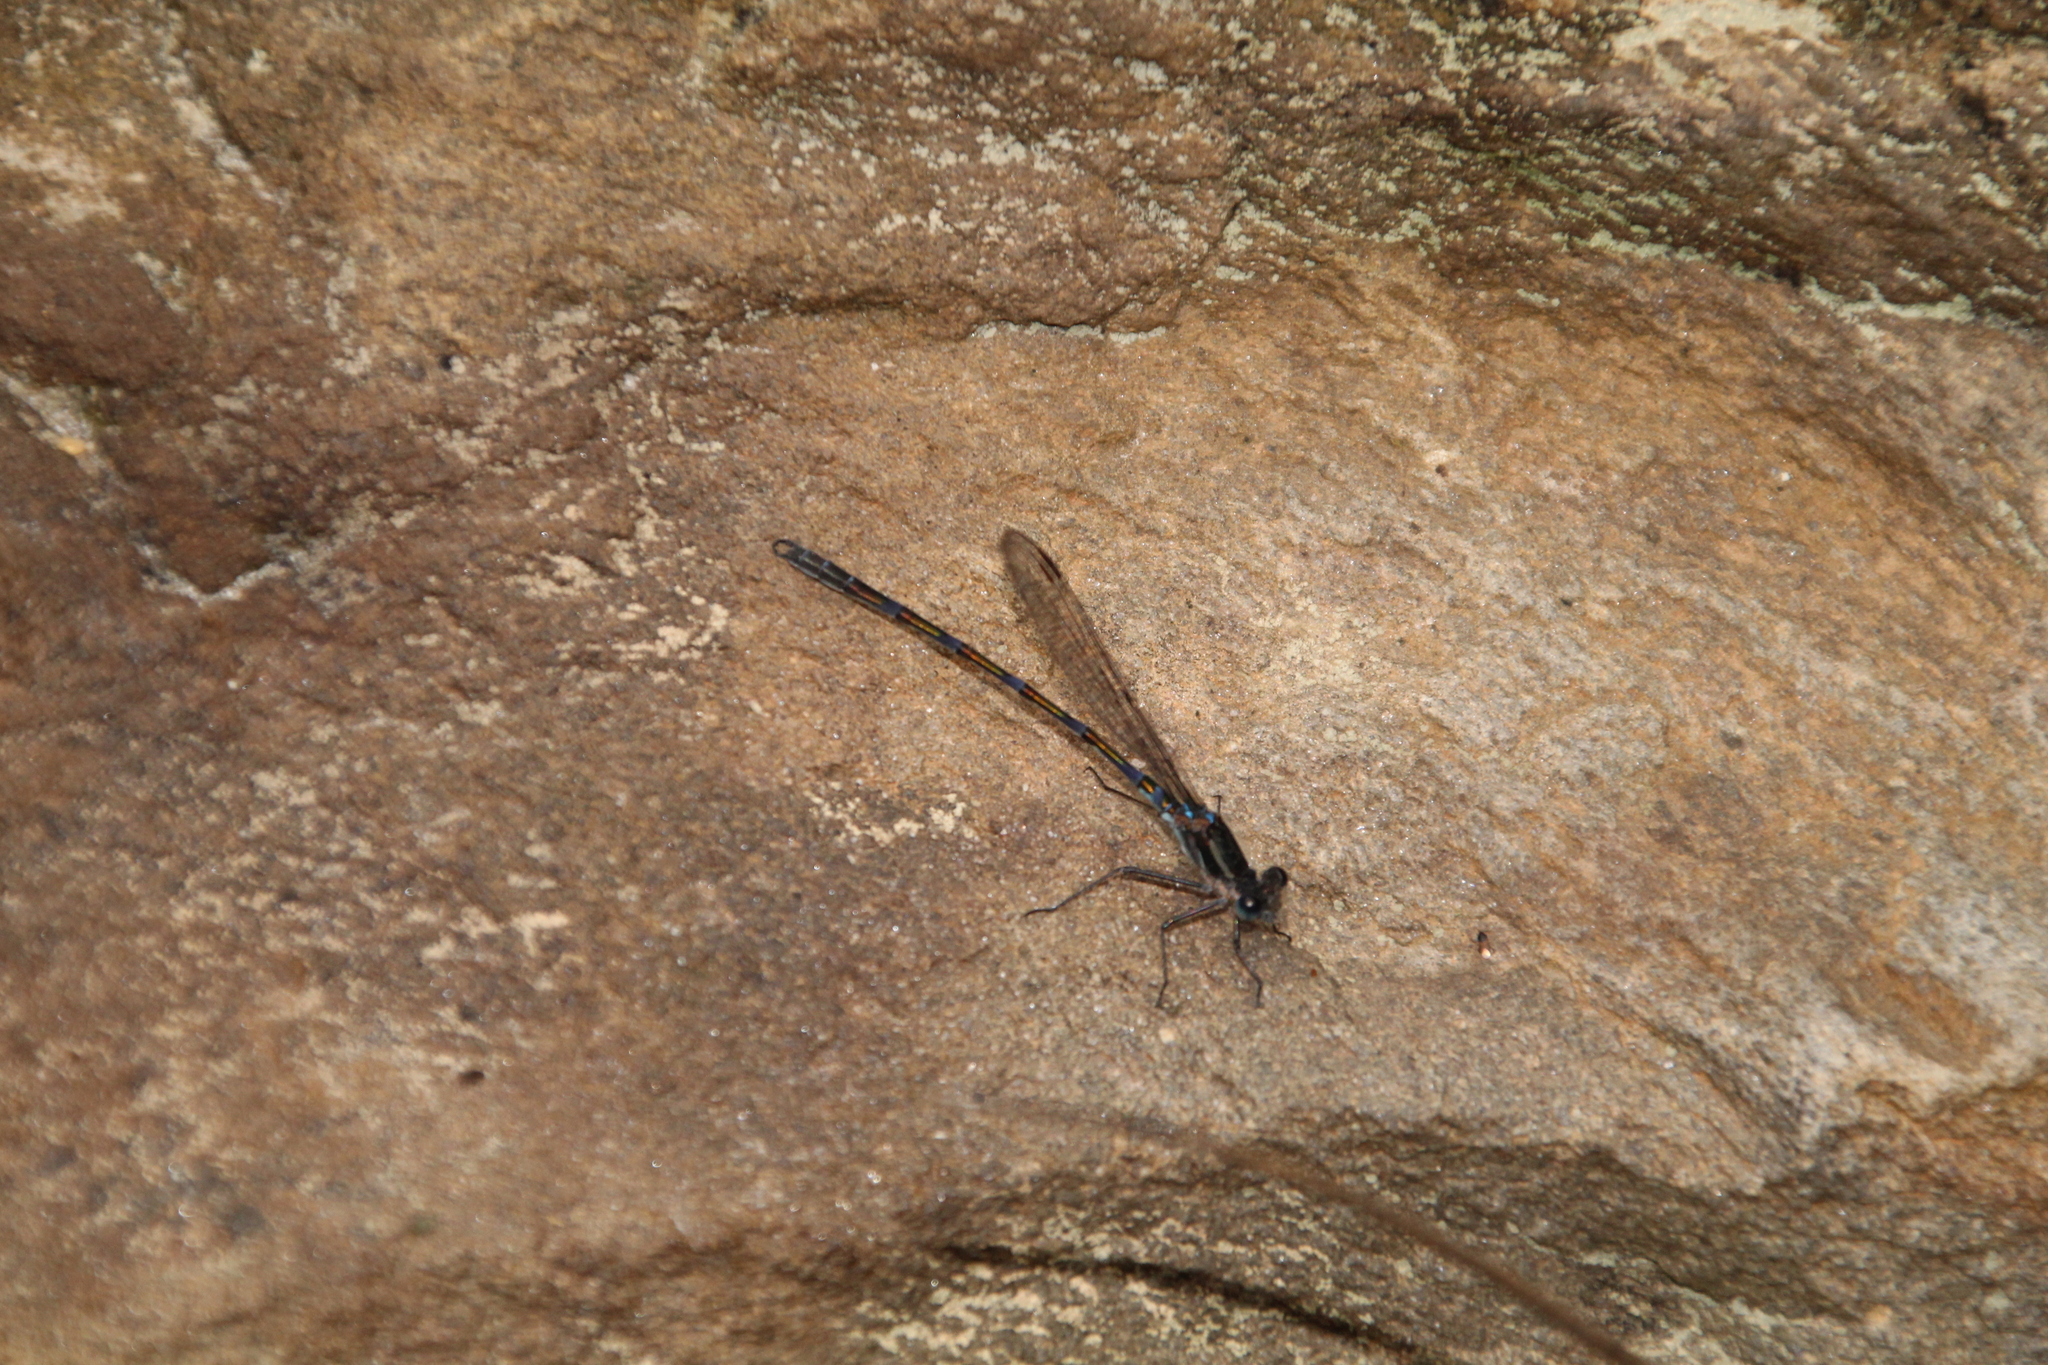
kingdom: Animalia
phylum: Arthropoda
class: Insecta
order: Odonata
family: Lestidae
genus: Austrolestes
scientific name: Austrolestes annulosus
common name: Blue ringtail
